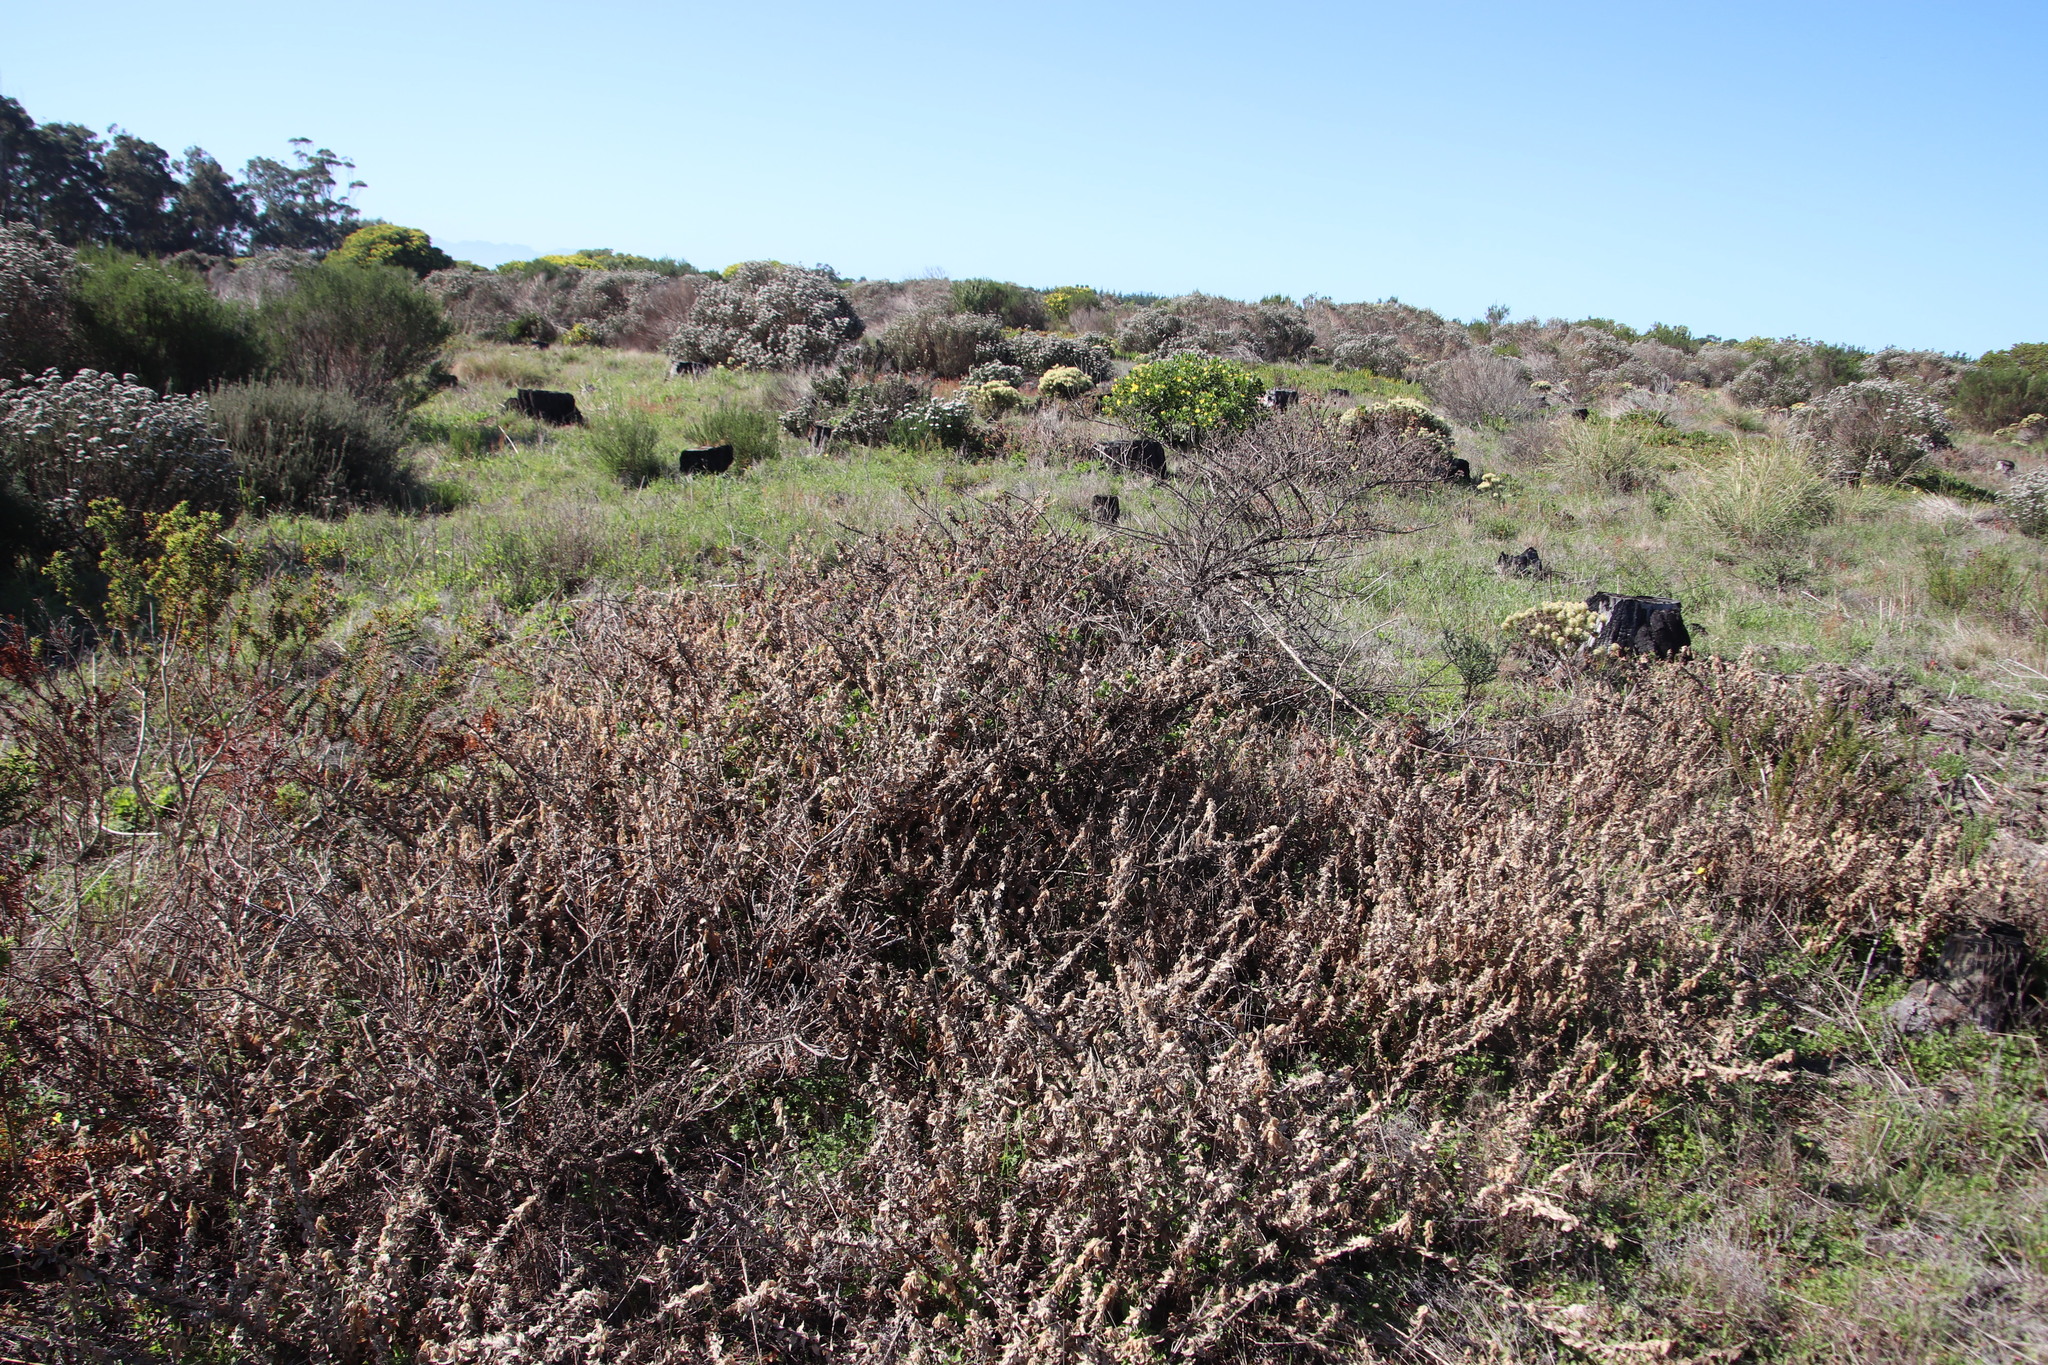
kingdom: Plantae
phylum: Tracheophyta
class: Magnoliopsida
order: Lamiales
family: Scrophulariaceae
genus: Oftia
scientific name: Oftia africana
